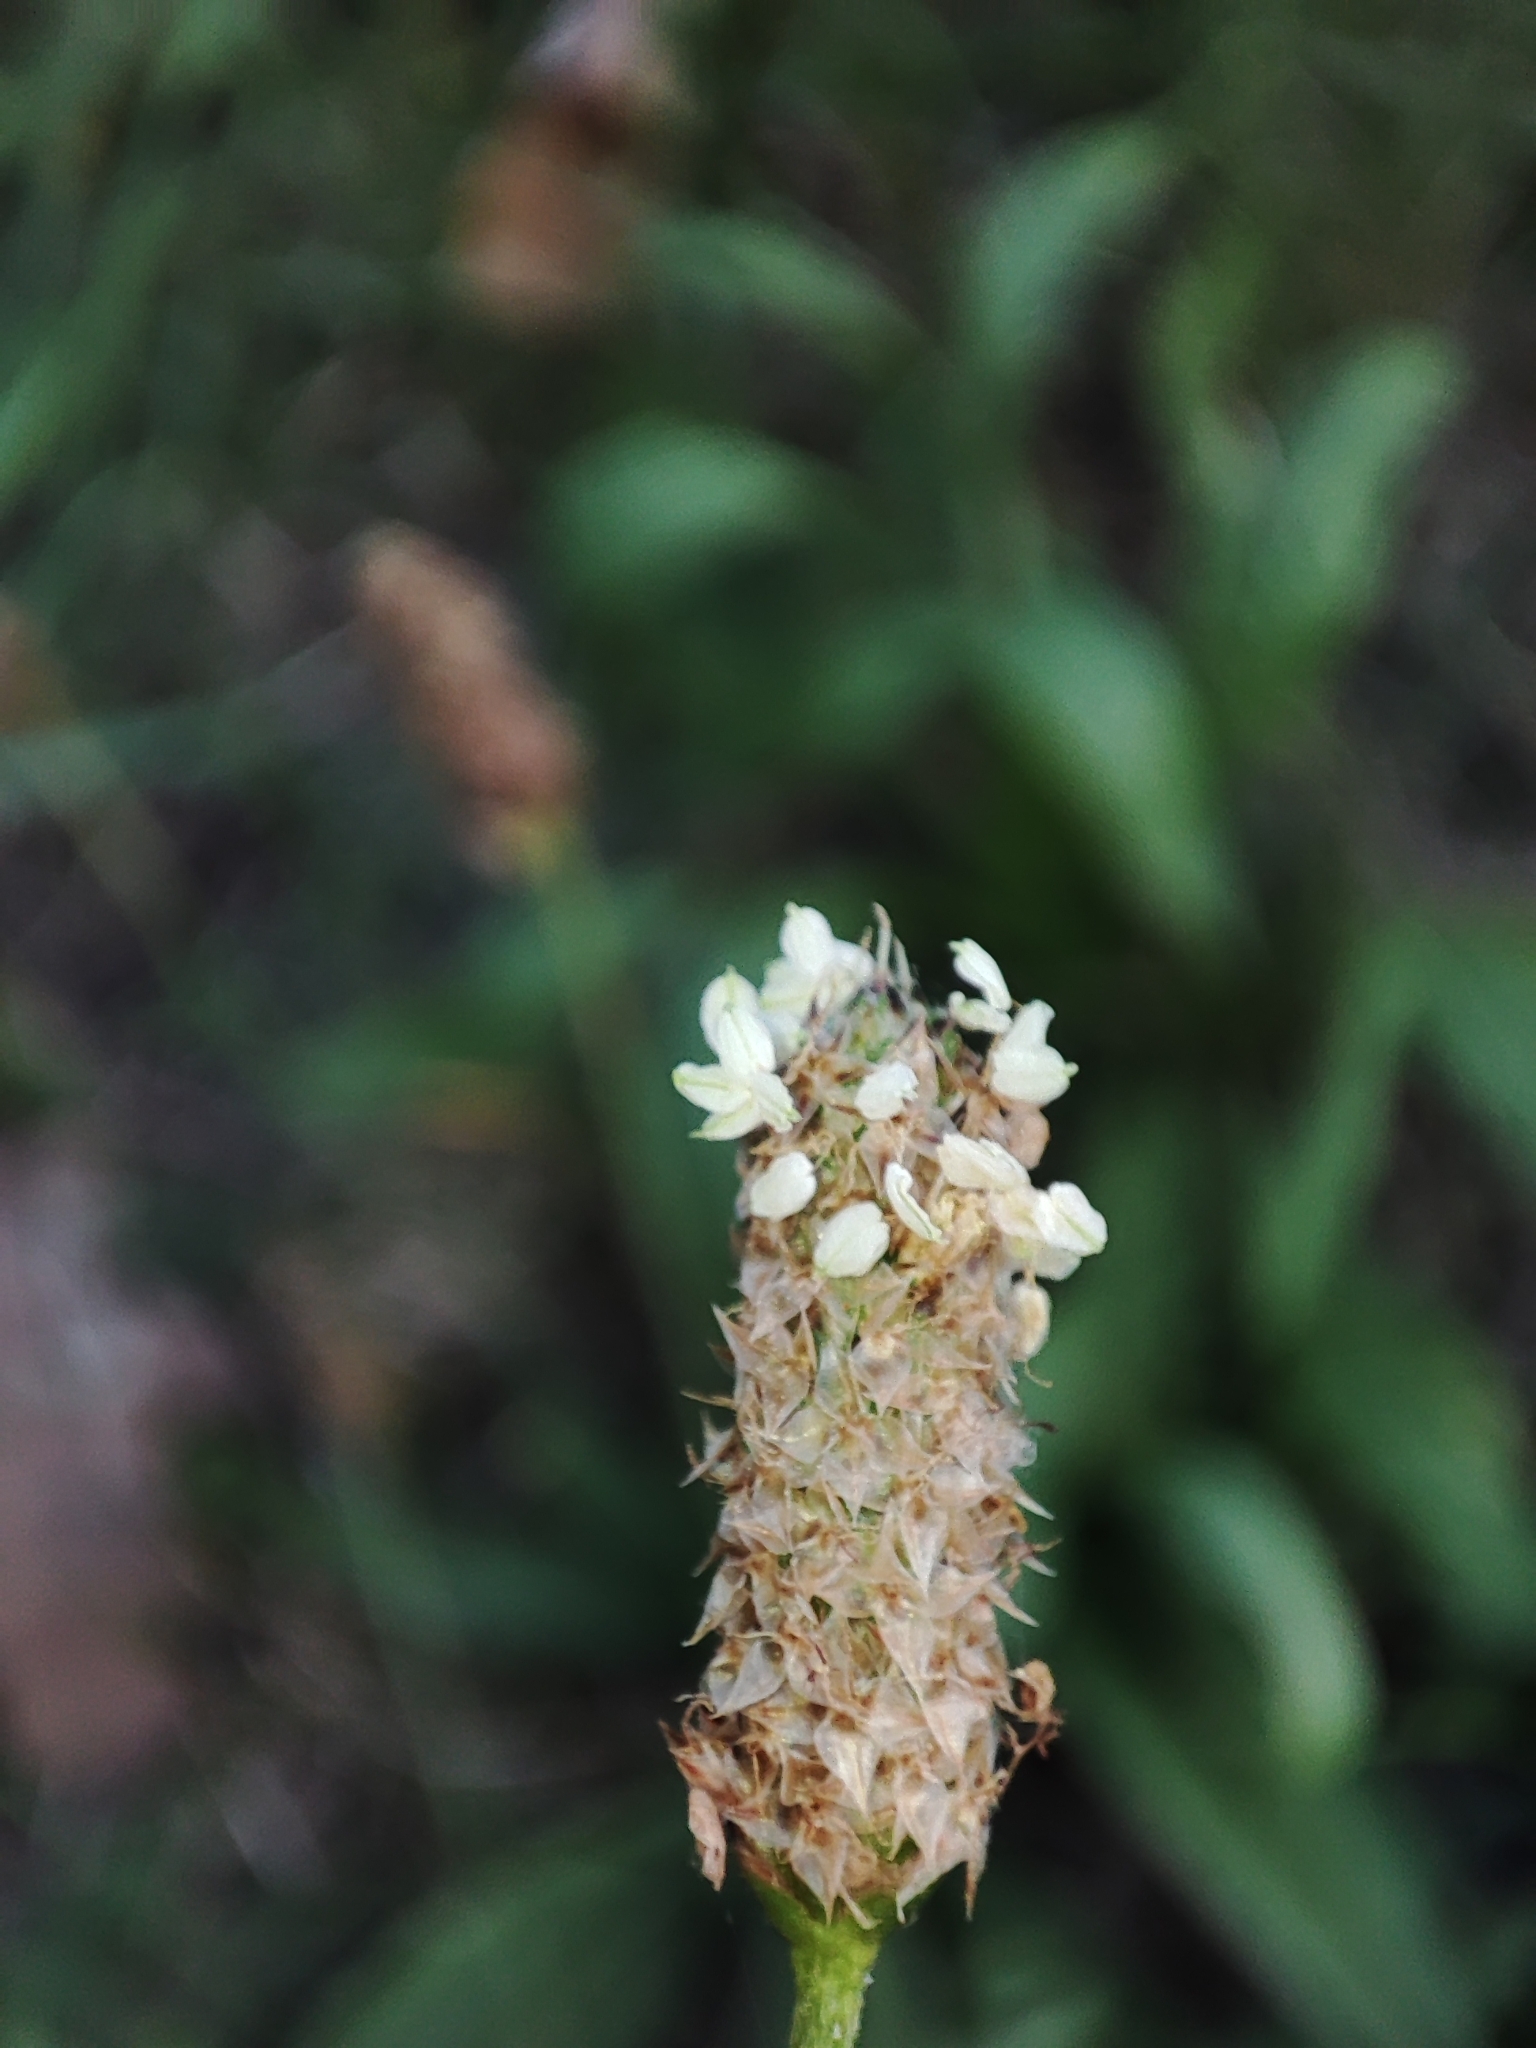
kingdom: Plantae
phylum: Tracheophyta
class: Magnoliopsida
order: Lamiales
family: Plantaginaceae
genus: Plantago
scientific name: Plantago lanceolata
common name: Ribwort plantain
